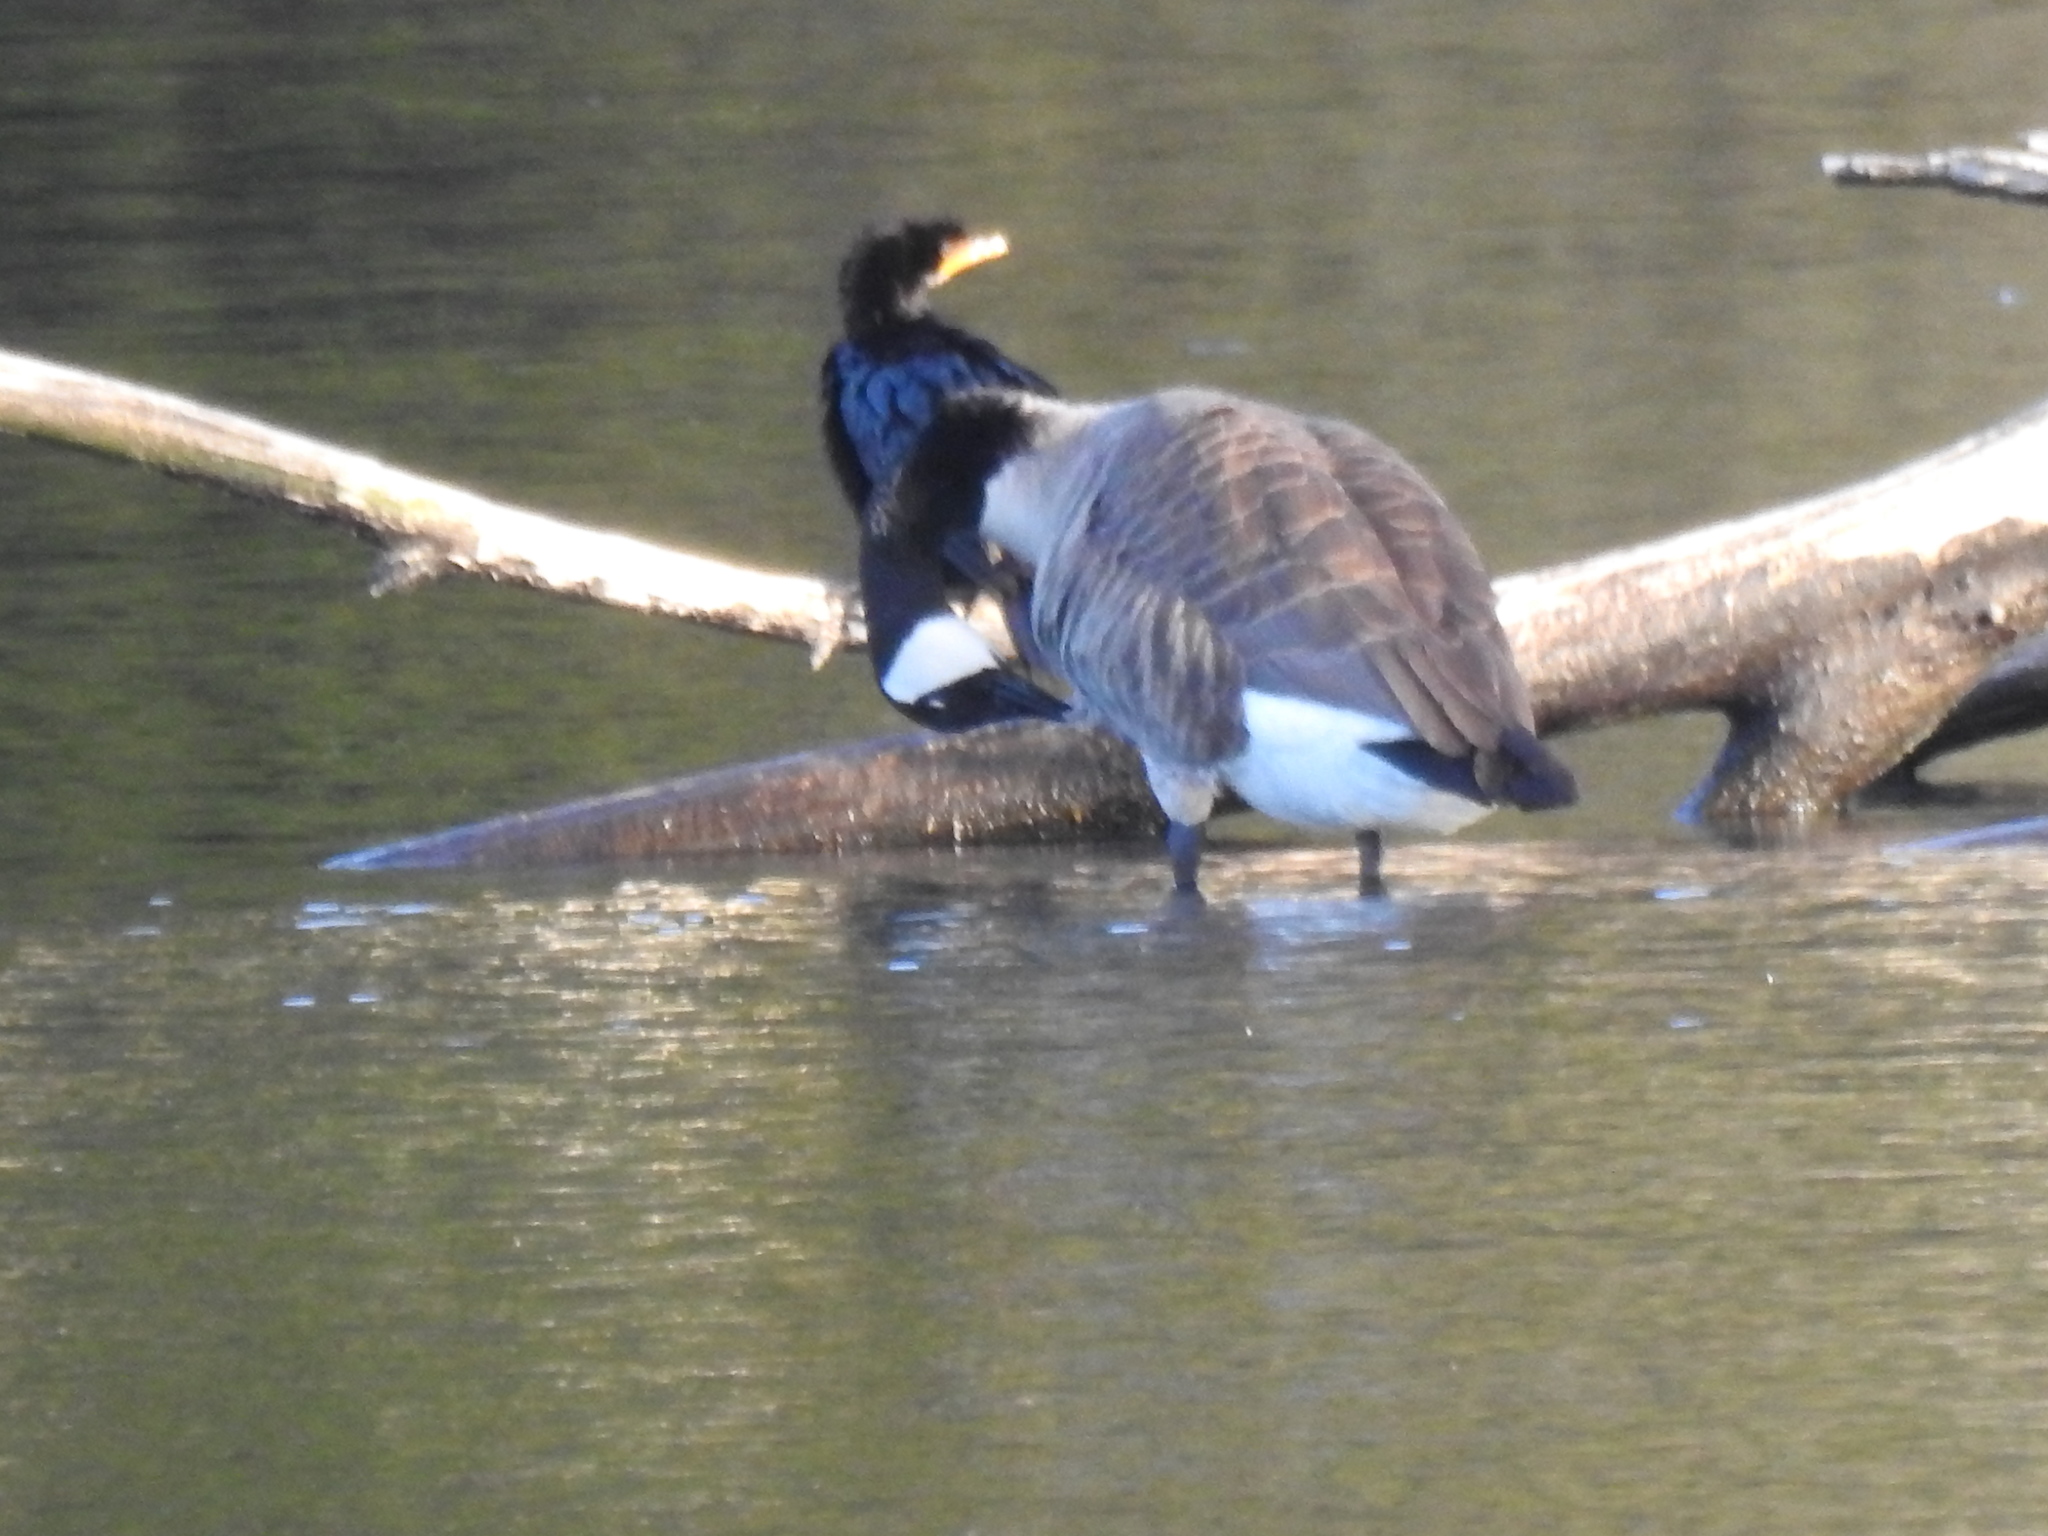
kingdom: Animalia
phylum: Chordata
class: Aves
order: Suliformes
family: Phalacrocoracidae
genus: Microcarbo
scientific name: Microcarbo melanoleucos
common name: Little pied cormorant
